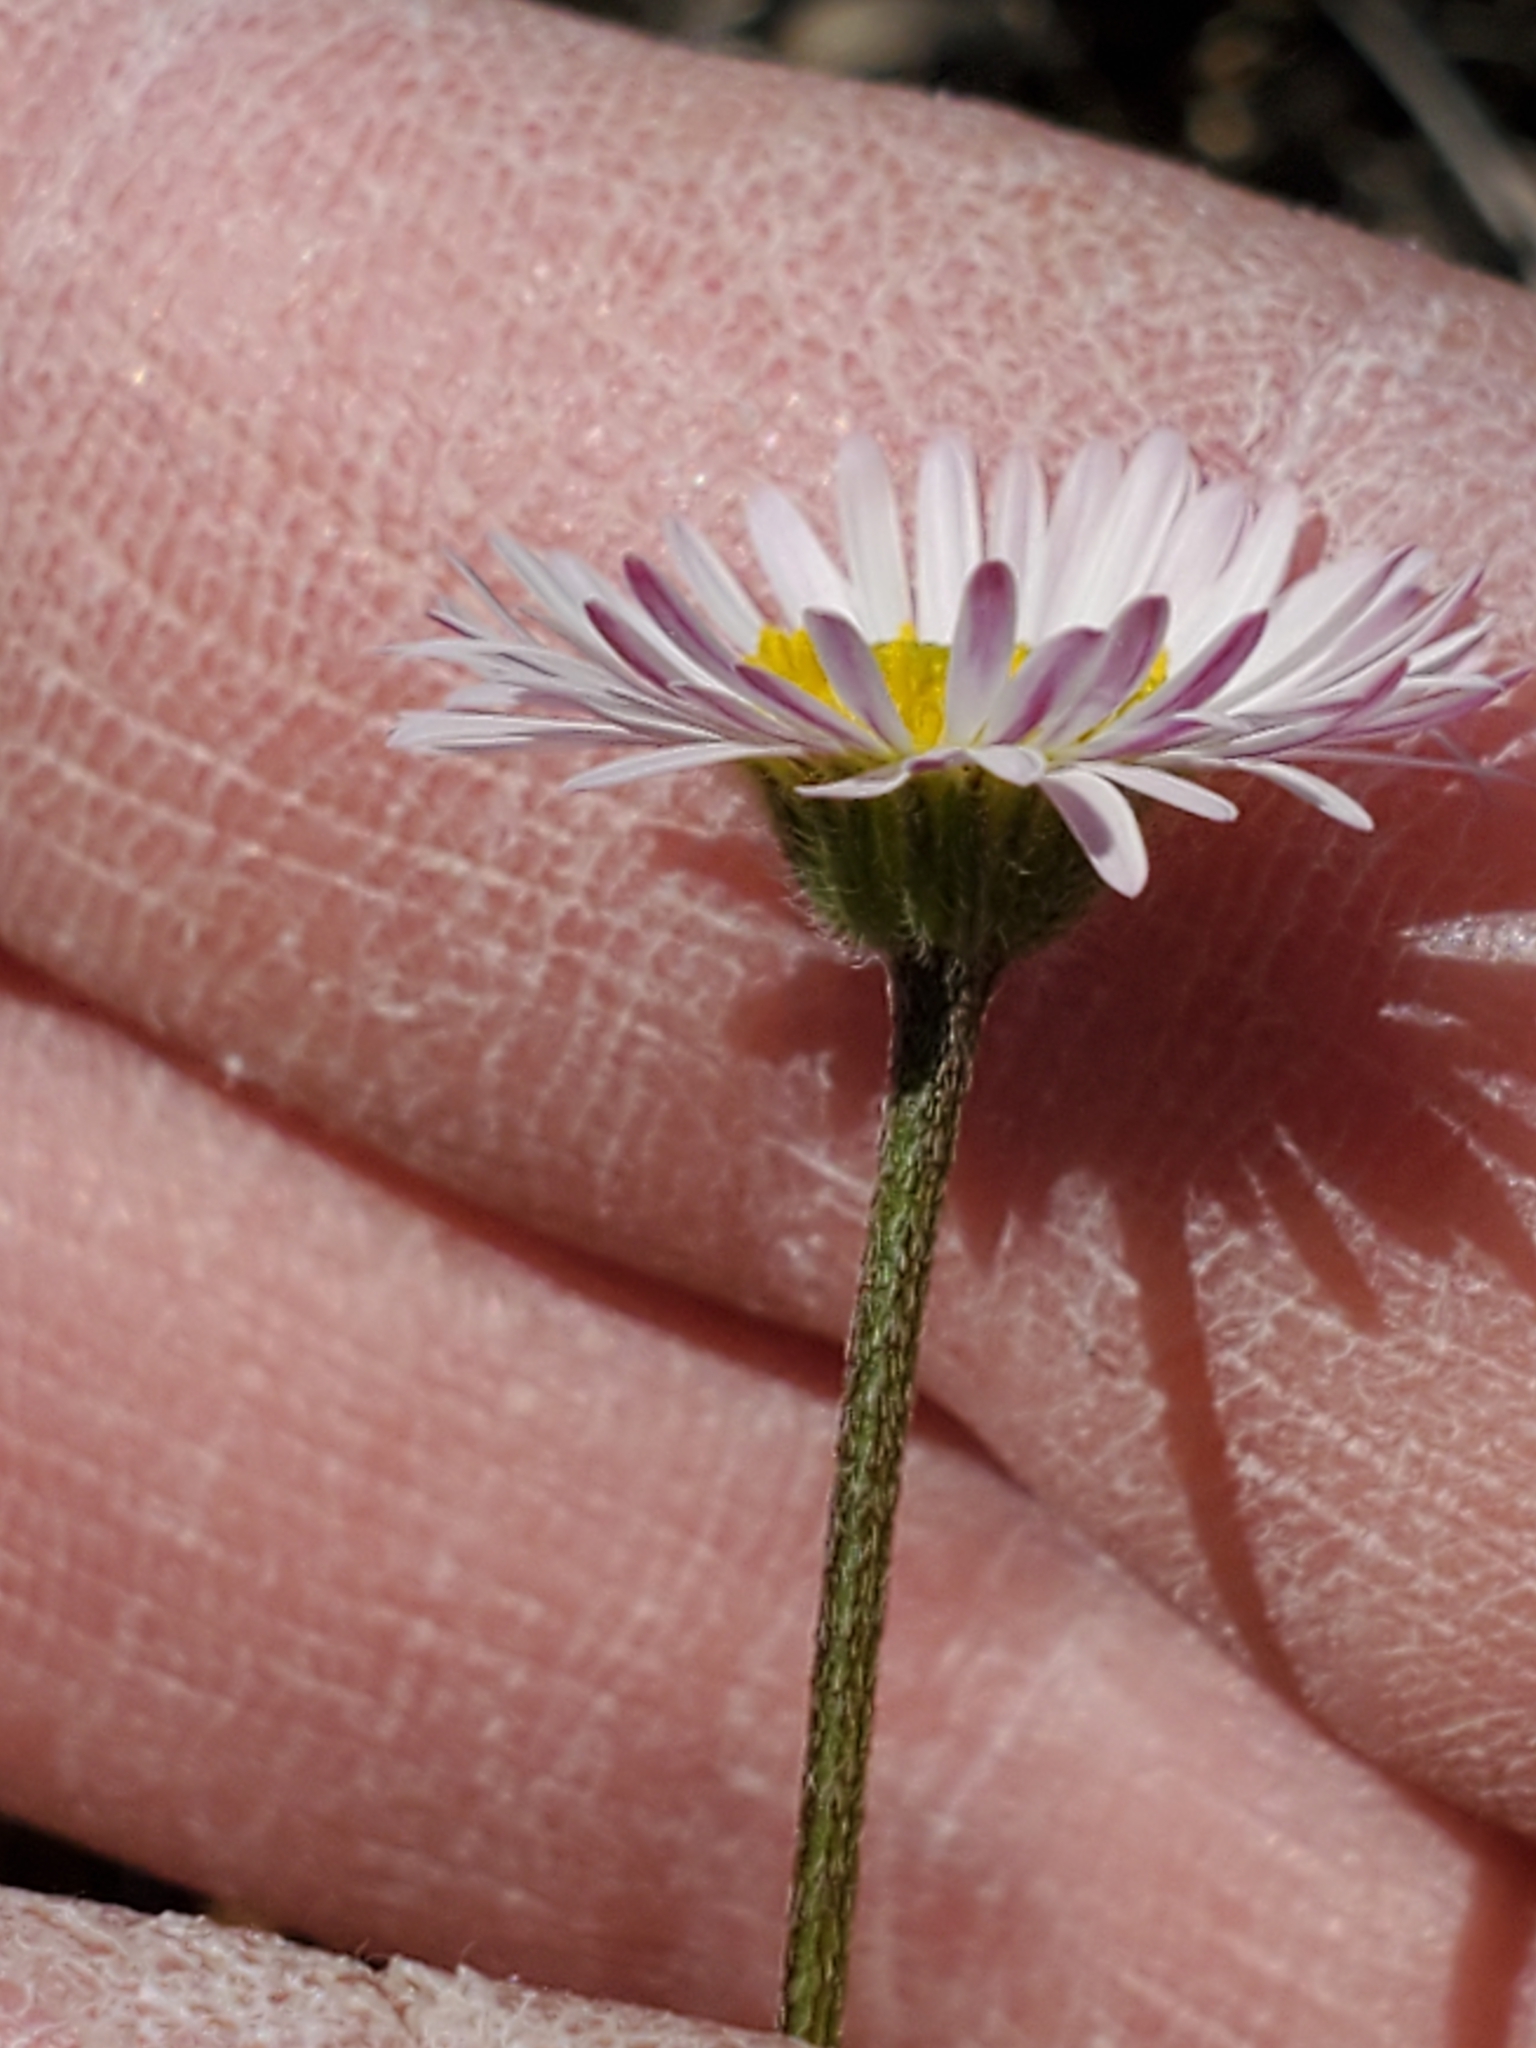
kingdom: Plantae
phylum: Tracheophyta
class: Magnoliopsida
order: Asterales
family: Asteraceae
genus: Aphanostephus
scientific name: Aphanostephus ramosissimus
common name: Plains lazy daisy
